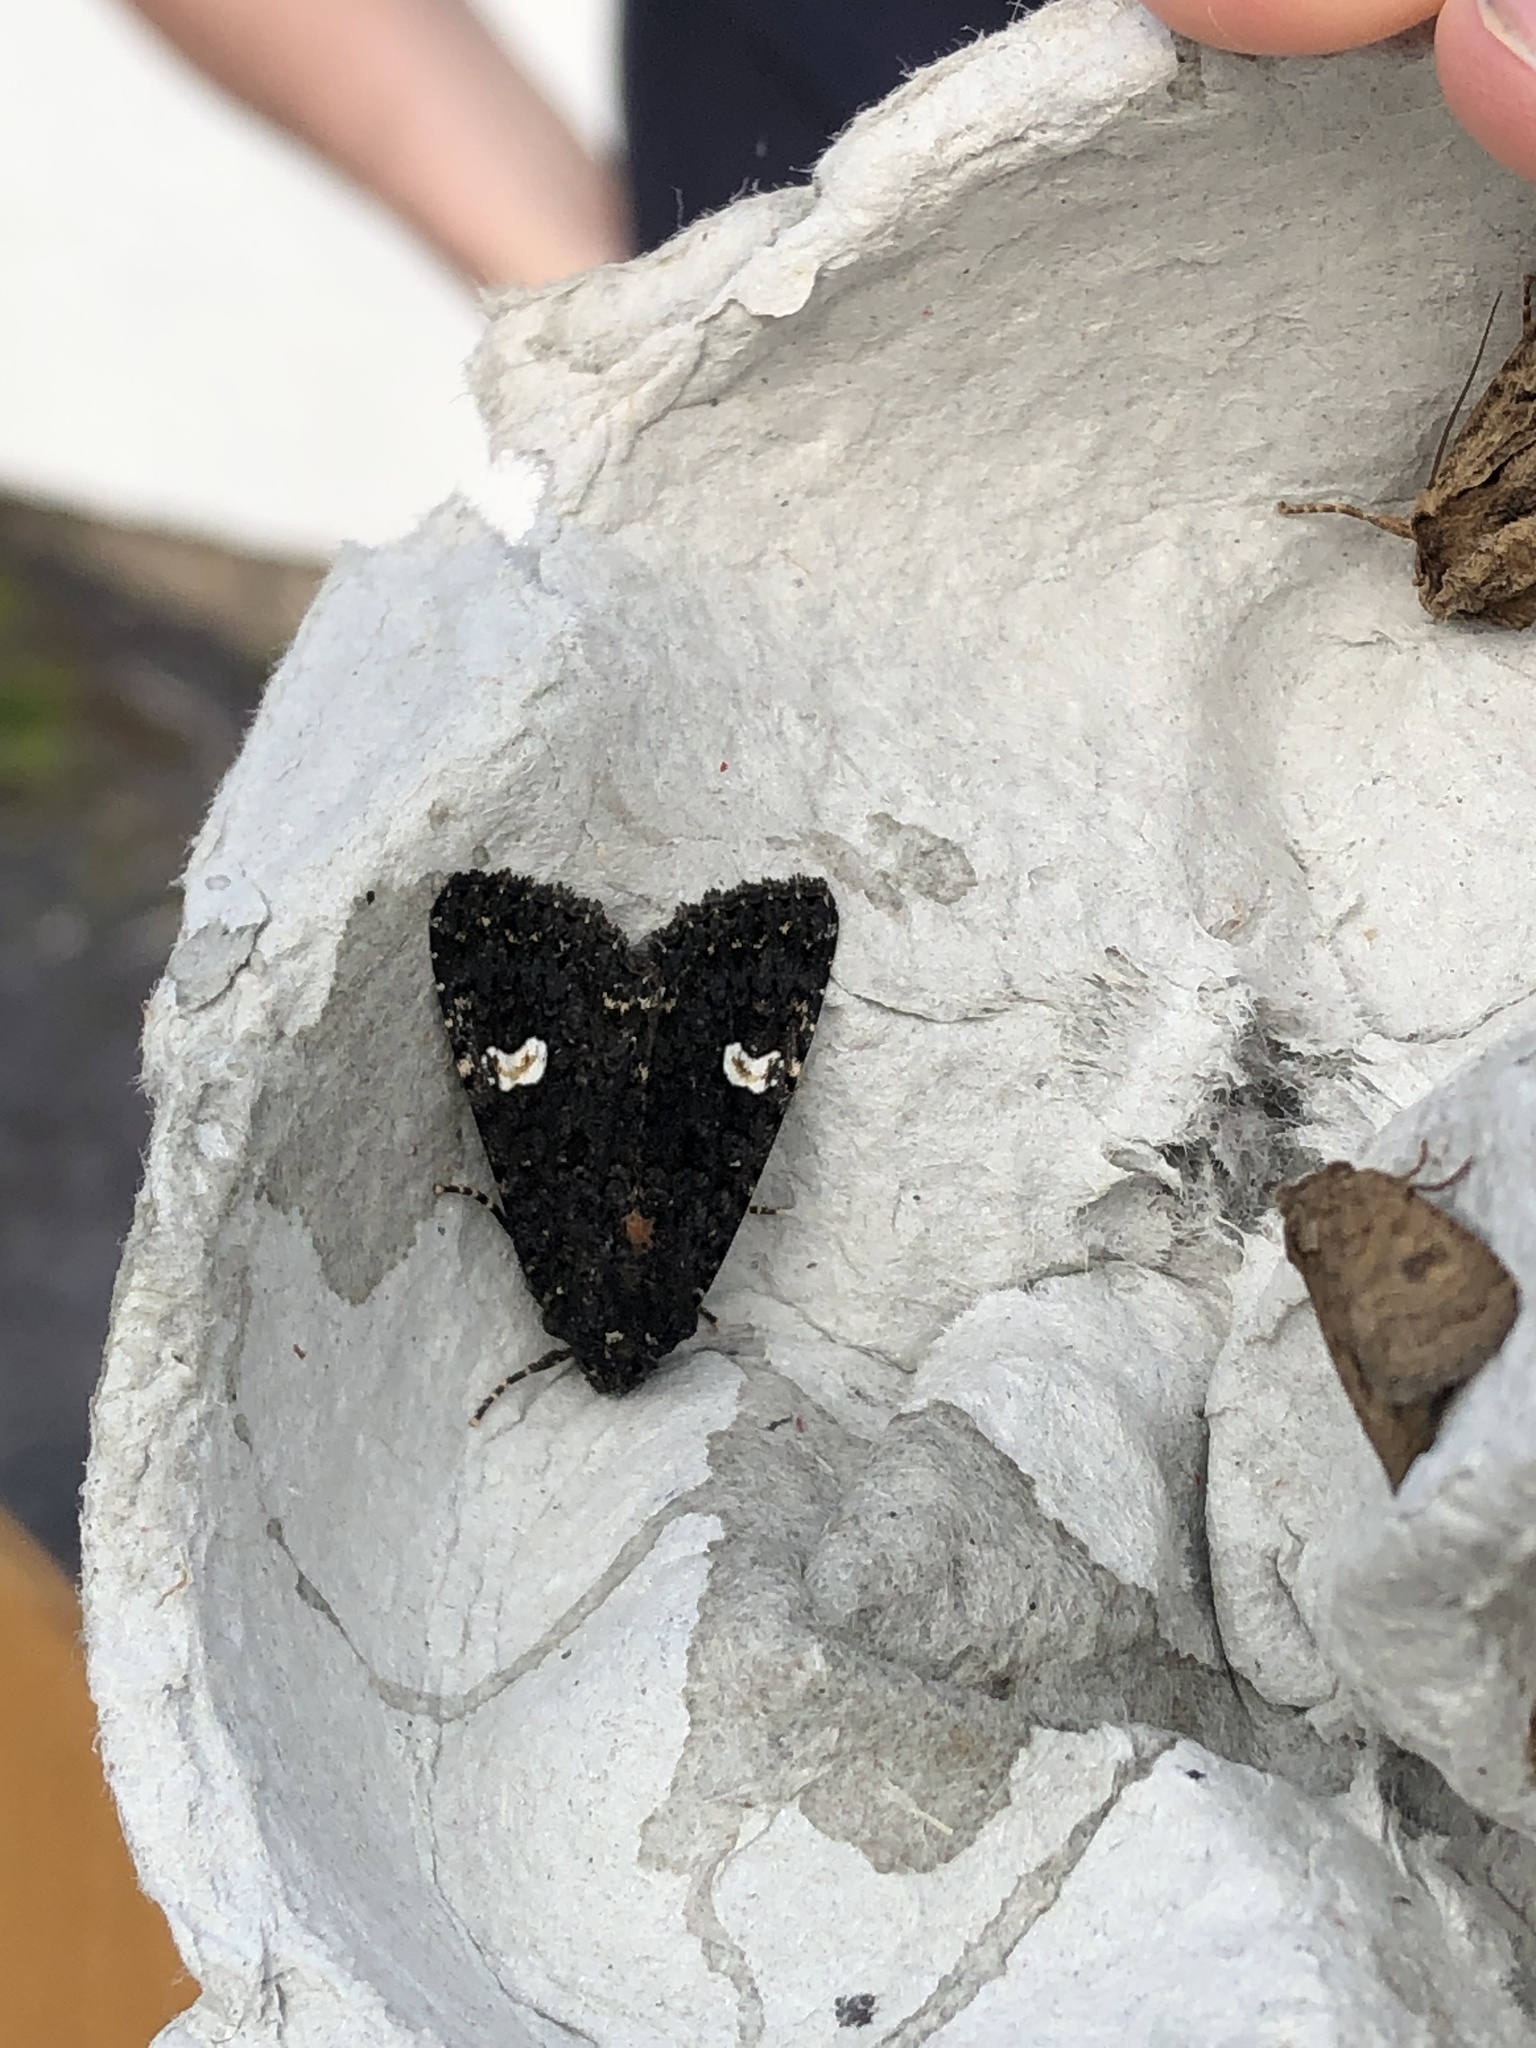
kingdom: Animalia
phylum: Arthropoda
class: Insecta
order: Lepidoptera
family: Noctuidae
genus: Melanchra
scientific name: Melanchra persicariae
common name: Dot moth
